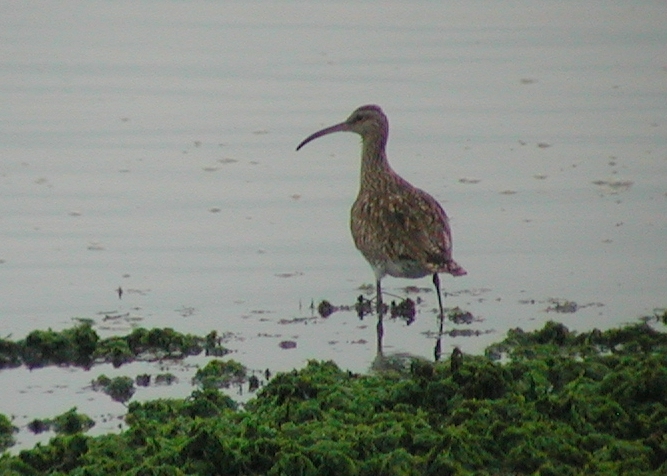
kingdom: Animalia
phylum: Chordata
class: Aves
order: Charadriiformes
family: Scolopacidae
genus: Numenius
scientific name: Numenius phaeopus
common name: Whimbrel
